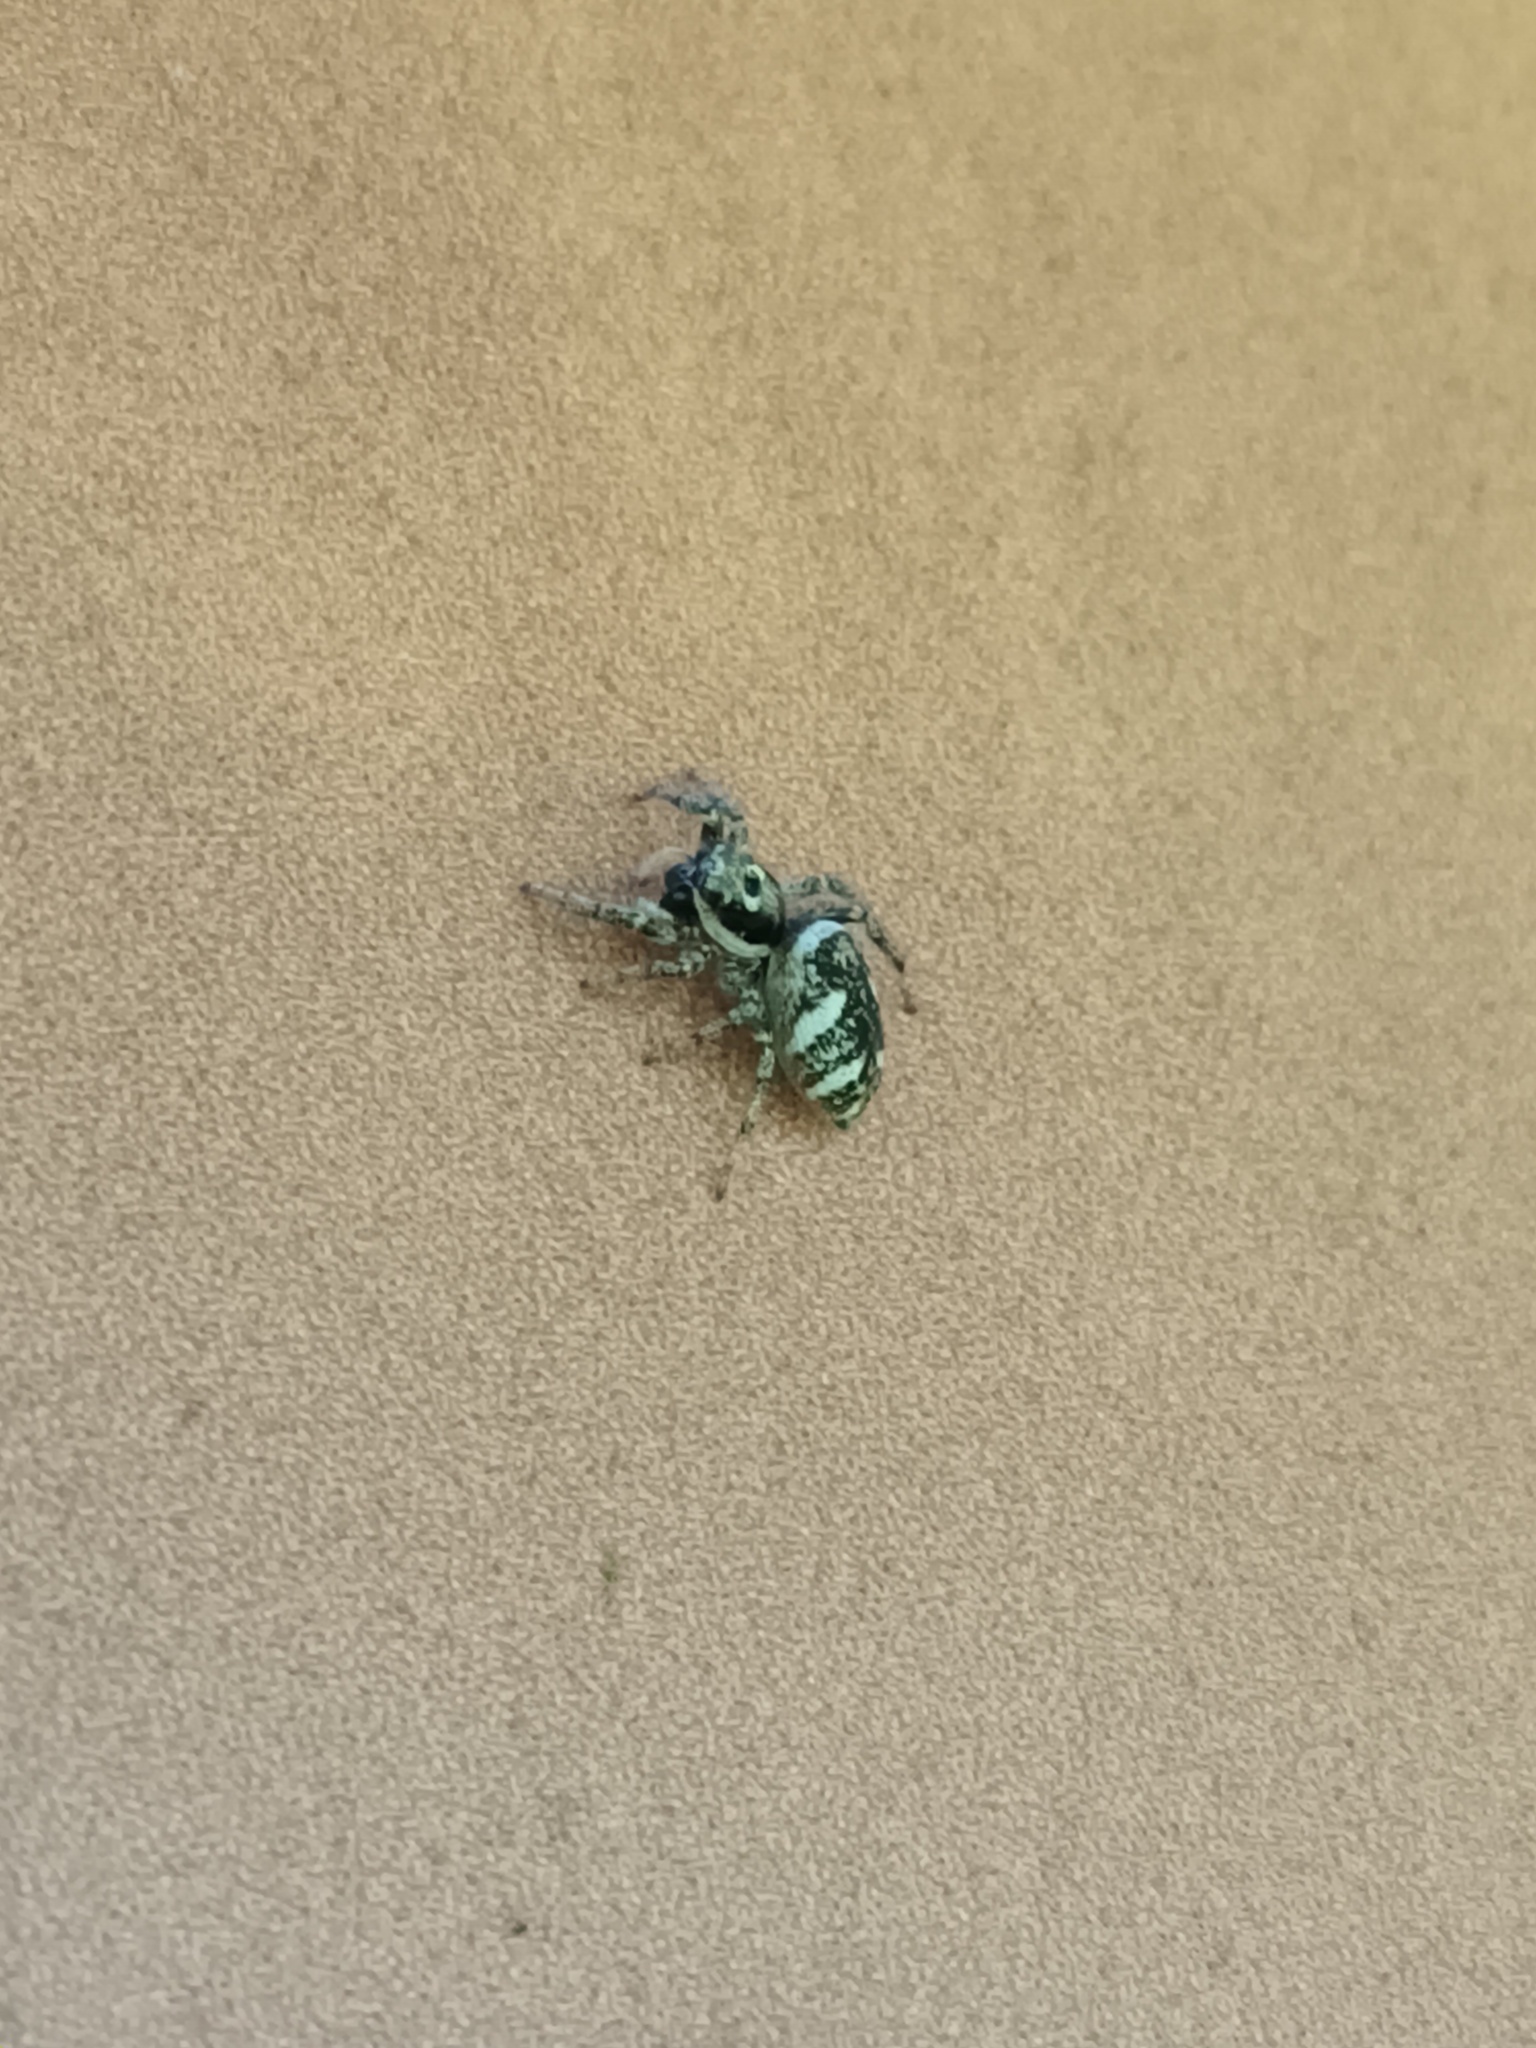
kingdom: Animalia
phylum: Arthropoda
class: Arachnida
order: Araneae
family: Salticidae
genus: Salticus
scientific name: Salticus scenicus
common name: Zebra jumper
